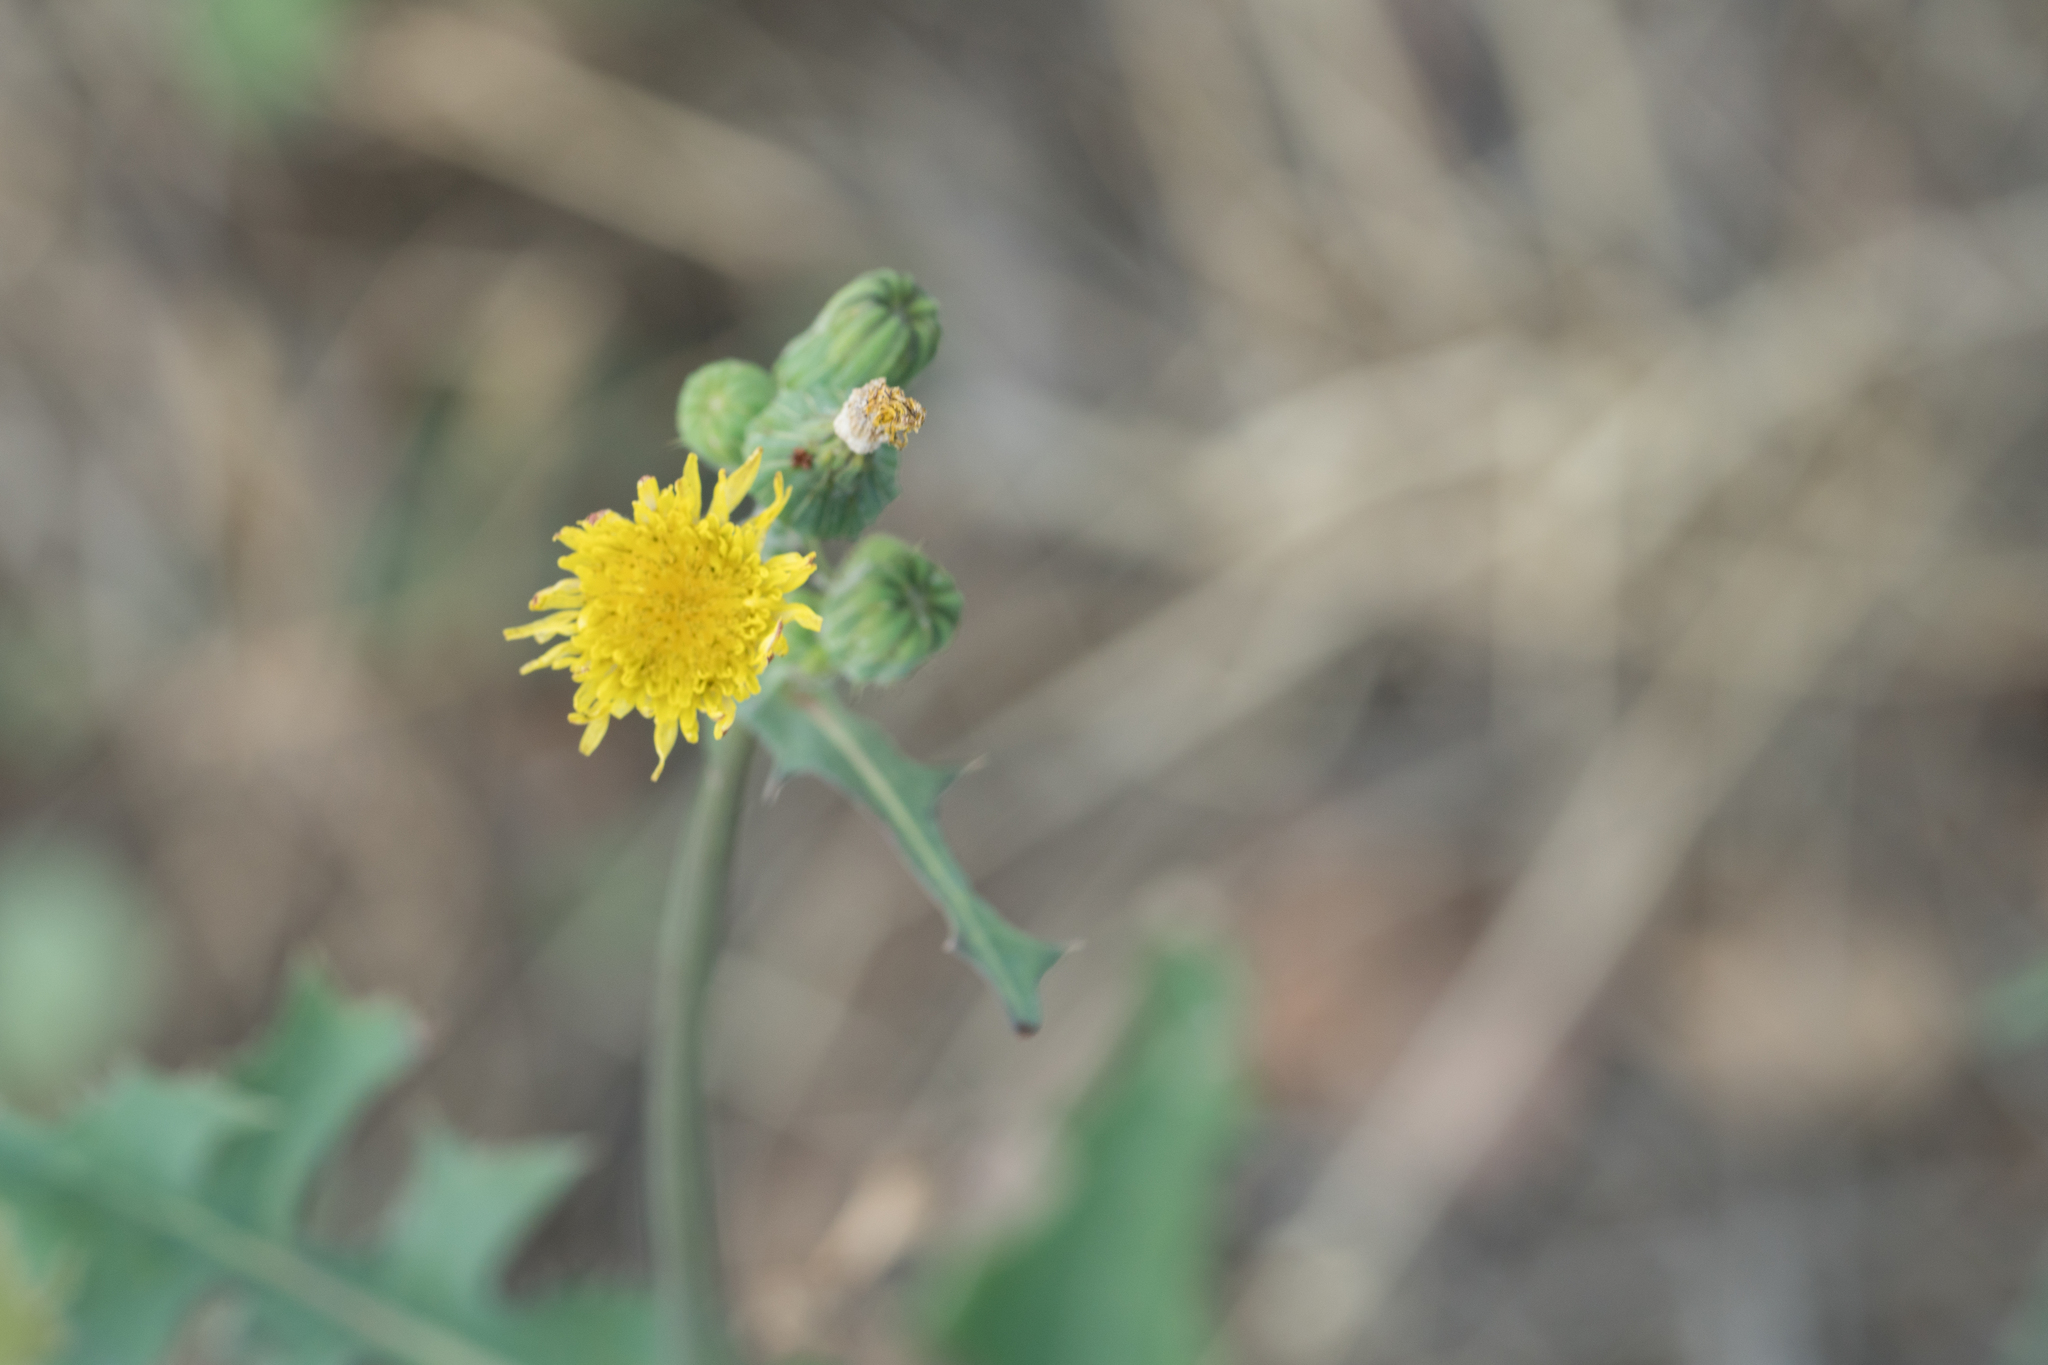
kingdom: Plantae
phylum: Tracheophyta
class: Magnoliopsida
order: Asterales
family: Asteraceae
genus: Sonchus
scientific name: Sonchus oleraceus
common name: Common sowthistle
